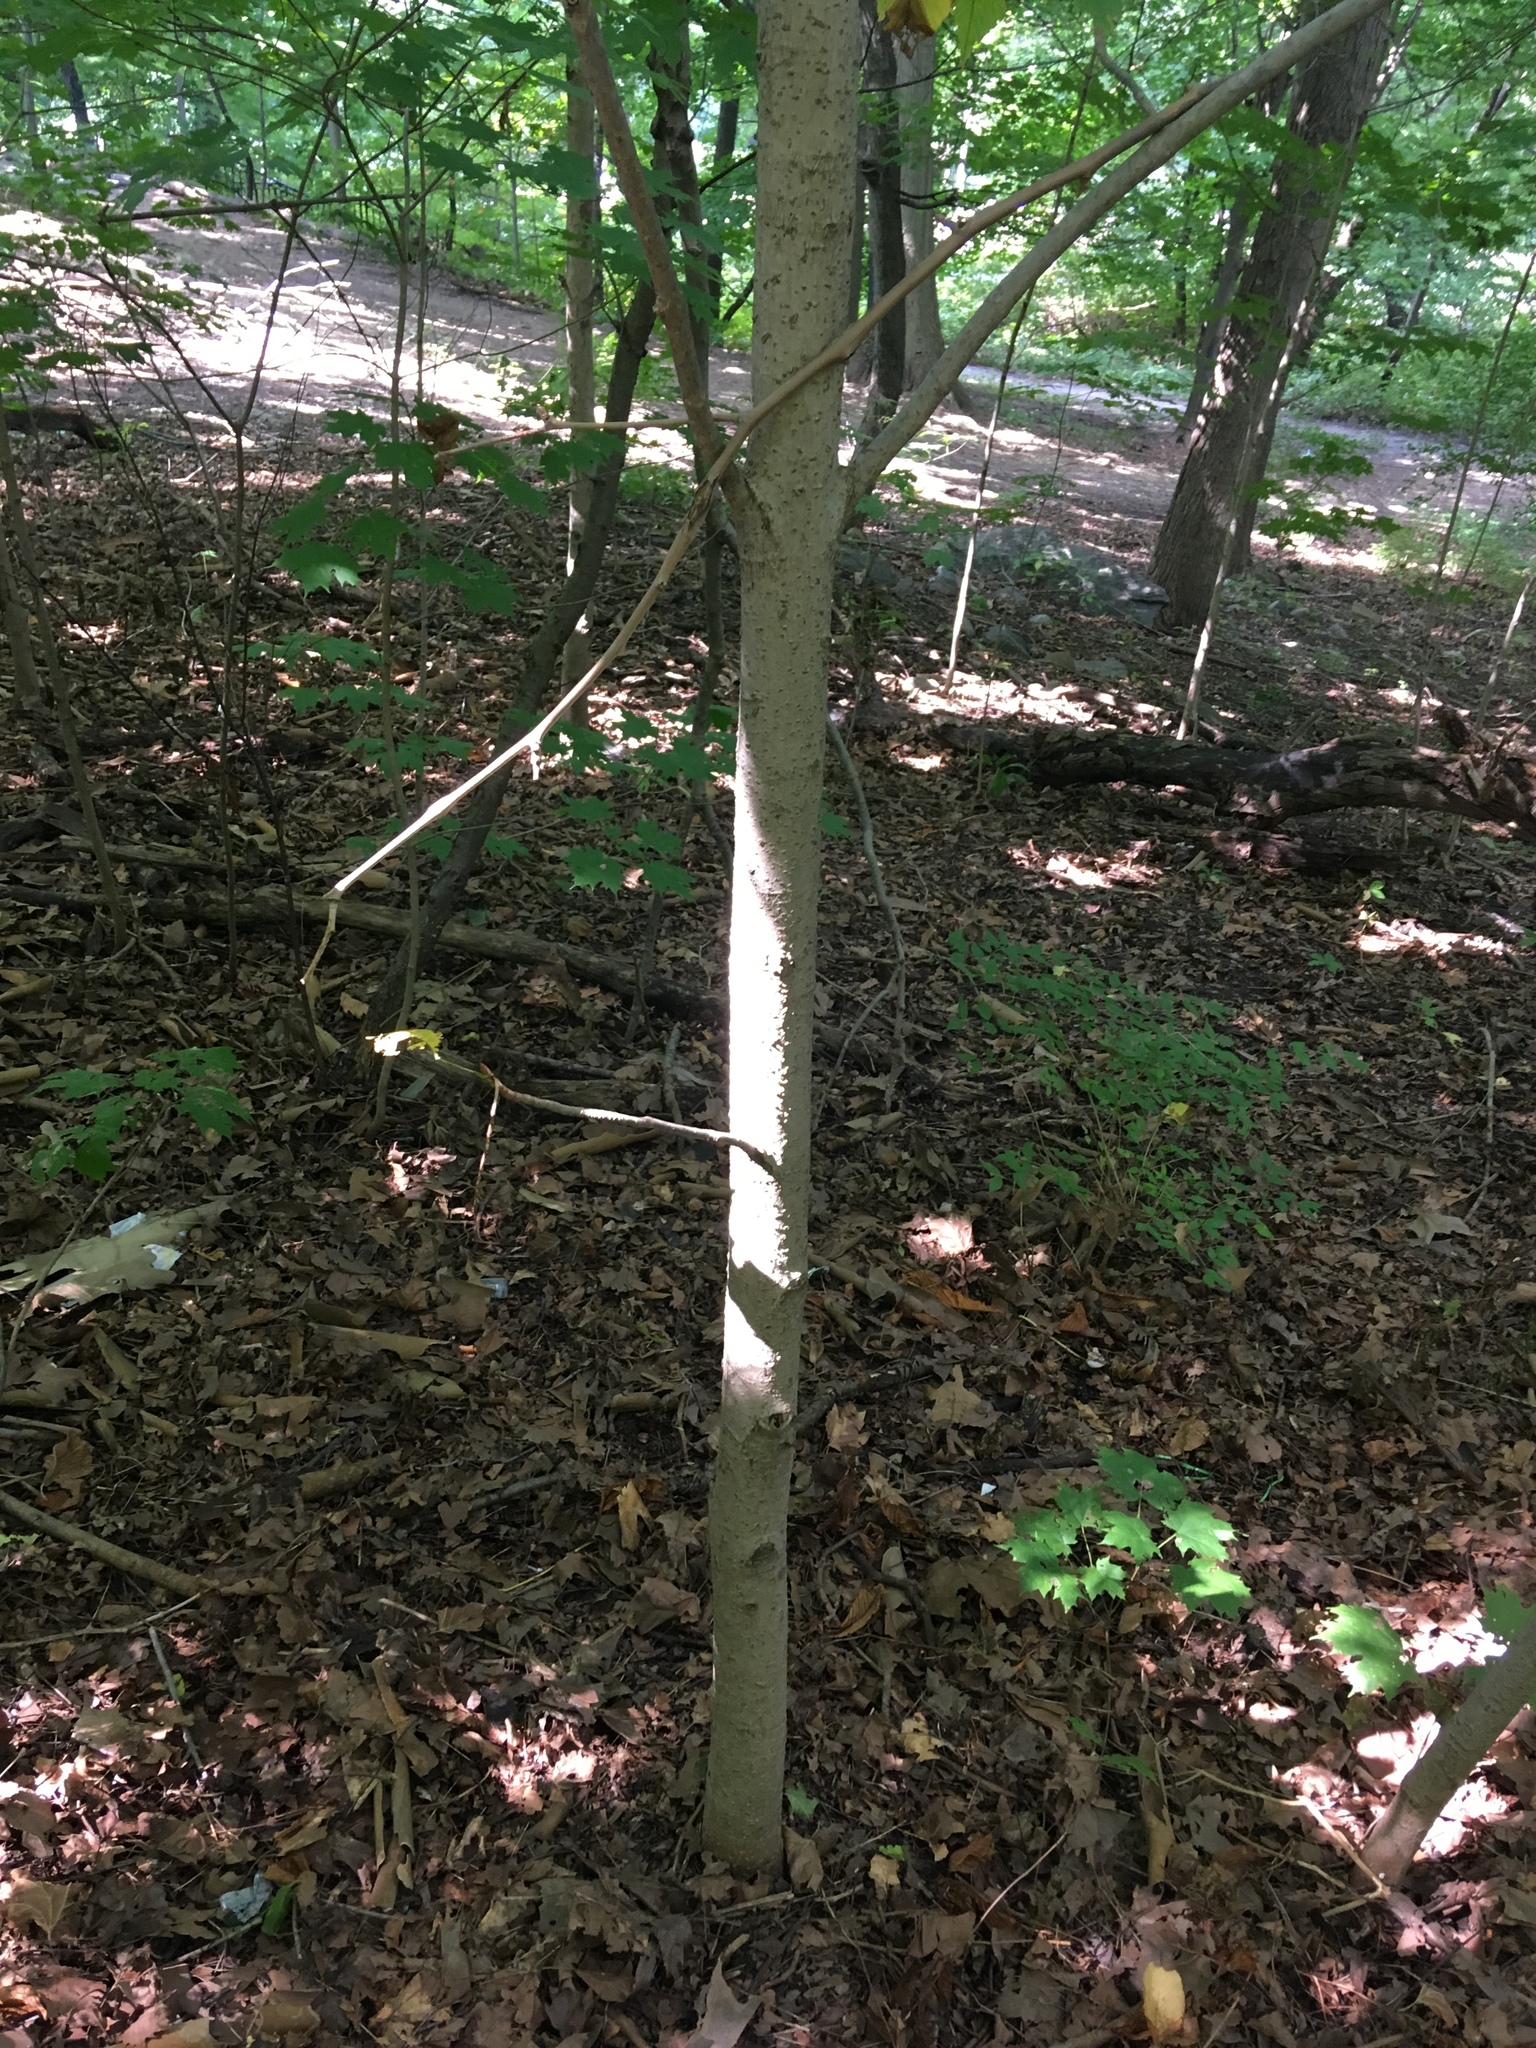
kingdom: Plantae
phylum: Tracheophyta
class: Magnoliopsida
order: Sapindales
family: Sapindaceae
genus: Aesculus
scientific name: Aesculus flava
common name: Yellow buckeye
